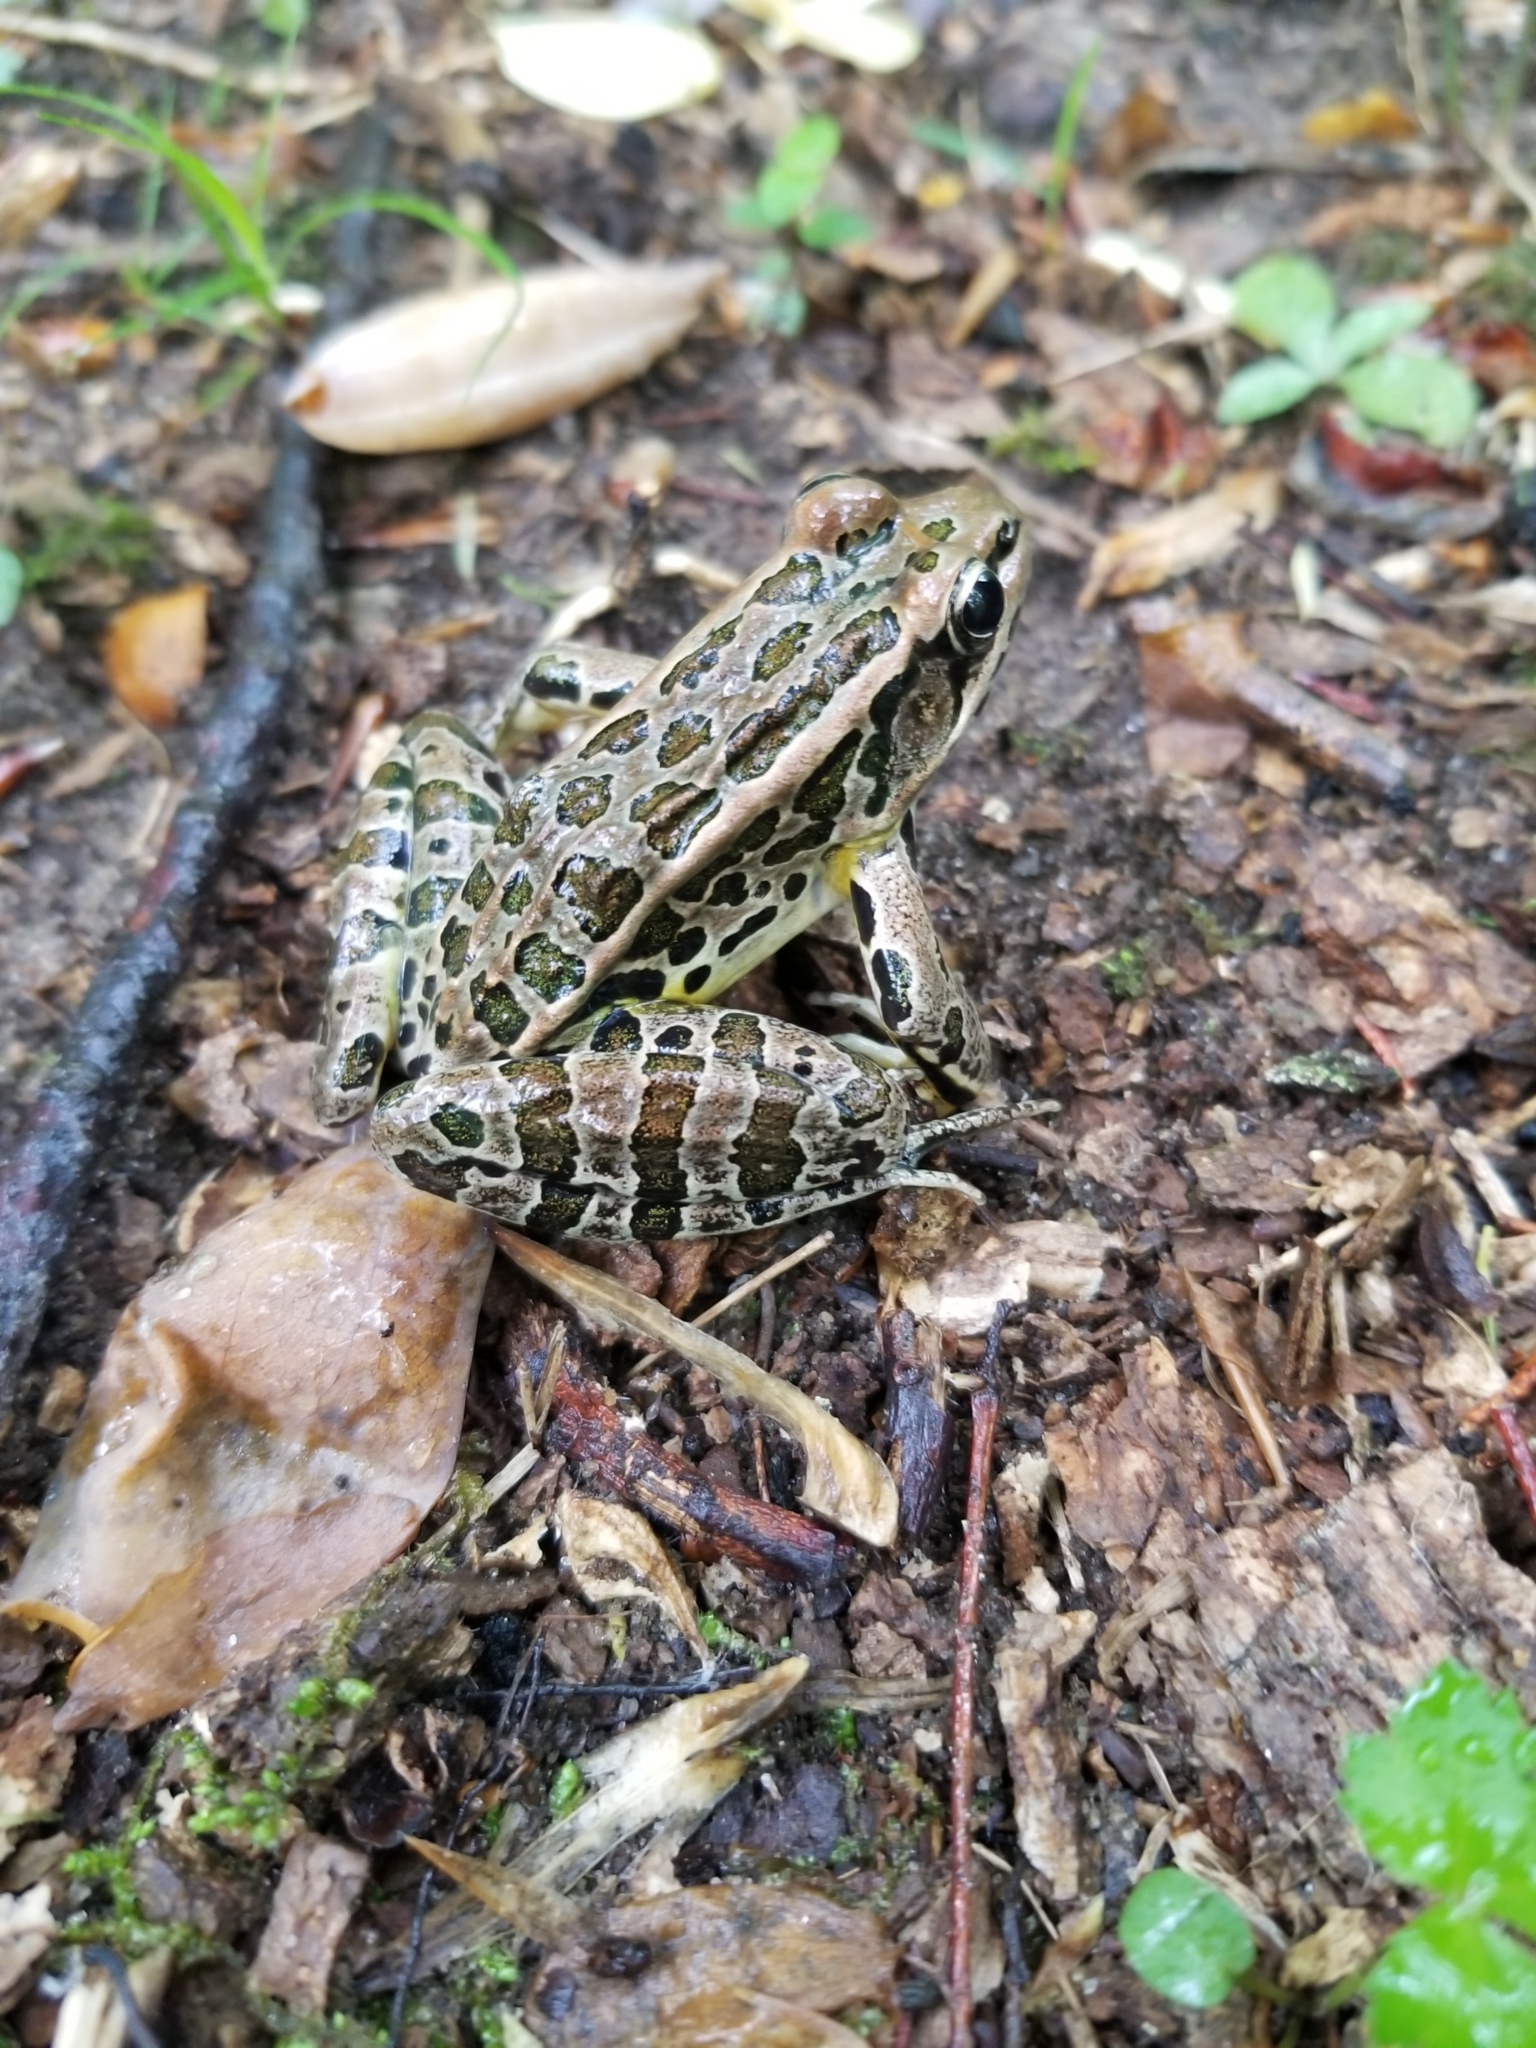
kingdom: Animalia
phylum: Chordata
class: Amphibia
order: Anura
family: Ranidae
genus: Lithobates
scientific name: Lithobates palustris
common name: Pickerel frog
